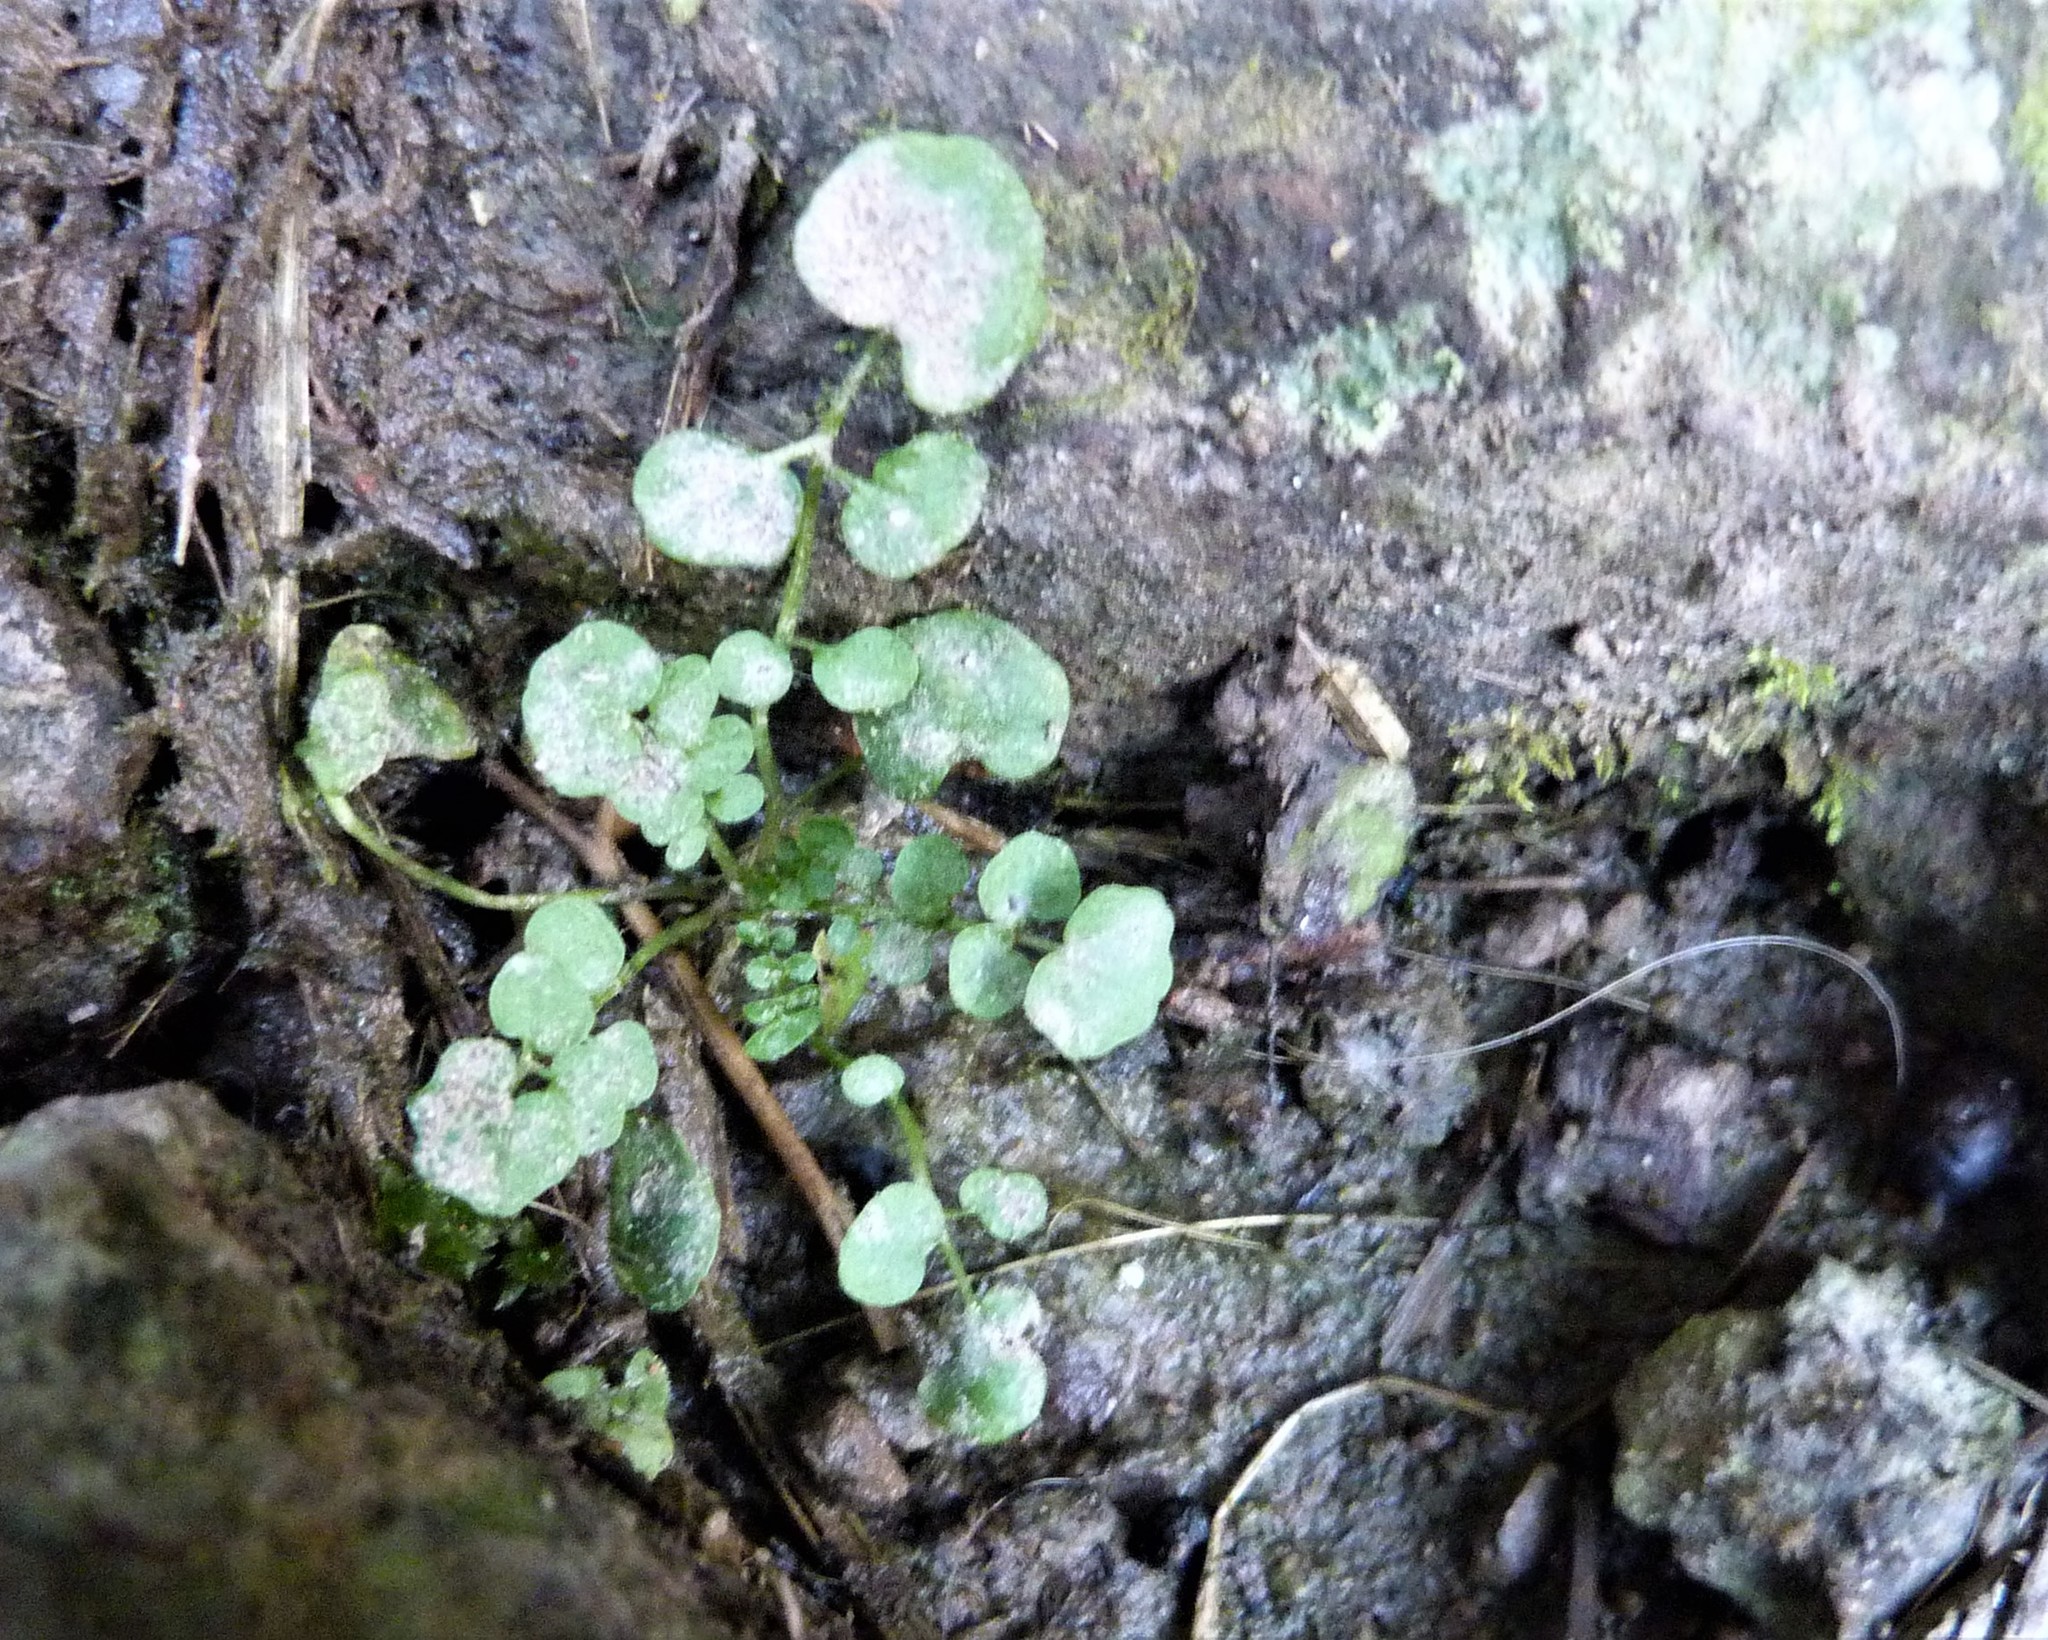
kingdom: Plantae
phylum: Tracheophyta
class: Magnoliopsida
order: Brassicales
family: Brassicaceae
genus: Cardamine
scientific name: Cardamine hirsuta
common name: Hairy bittercress
